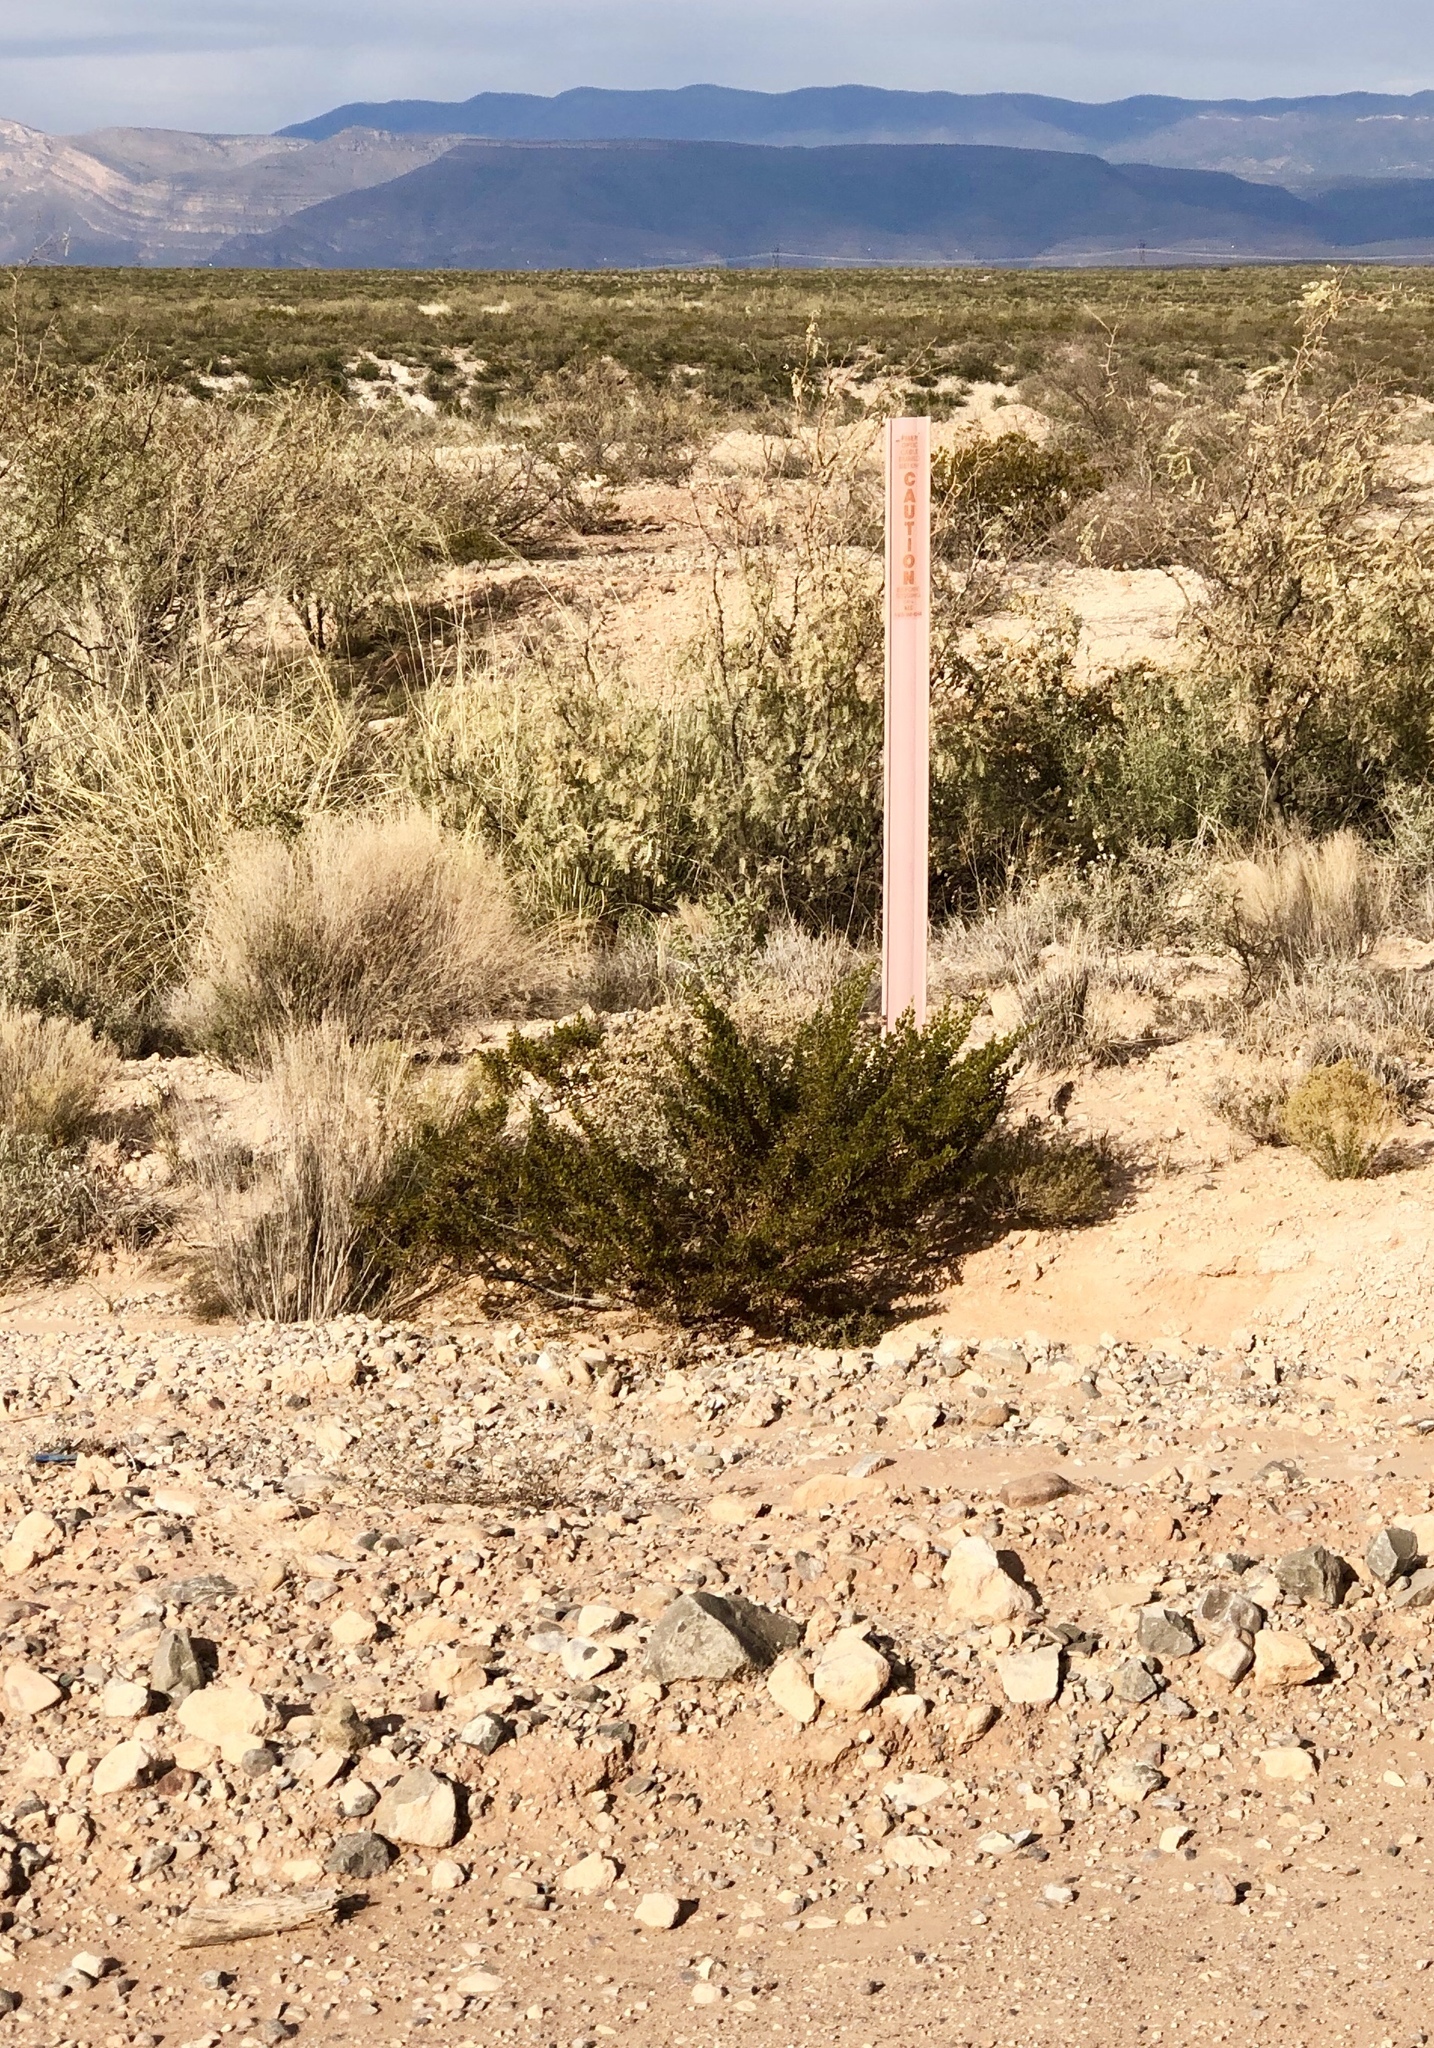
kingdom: Plantae
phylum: Tracheophyta
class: Magnoliopsida
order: Zygophyllales
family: Zygophyllaceae
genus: Larrea
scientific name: Larrea tridentata
